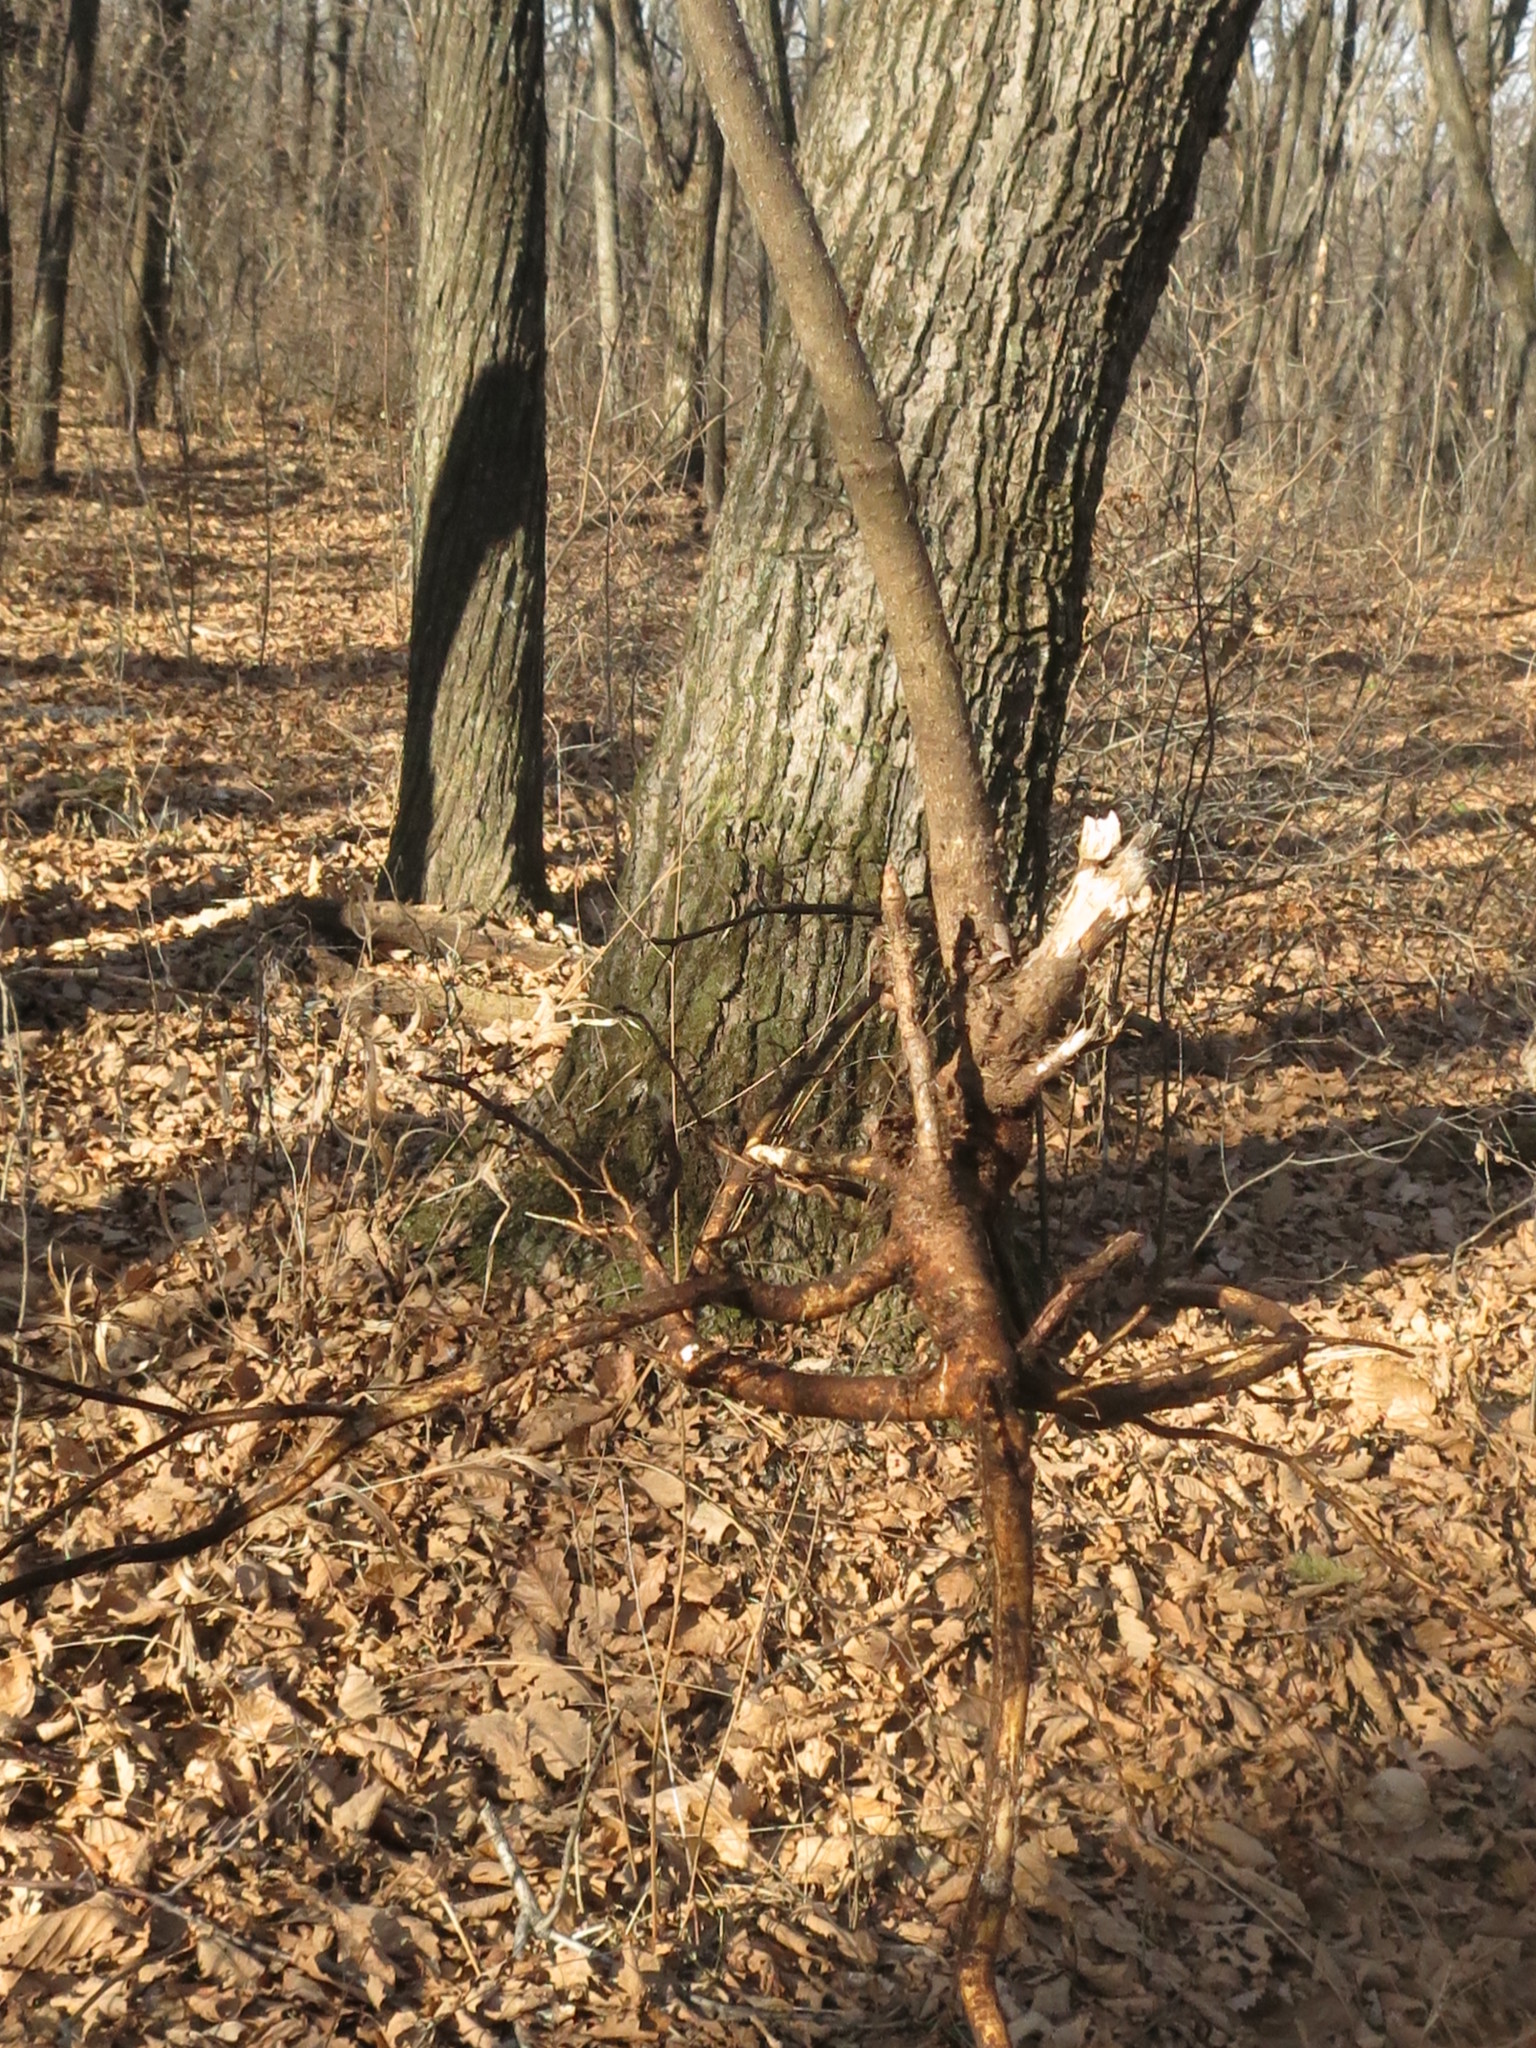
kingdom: Plantae
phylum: Tracheophyta
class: Magnoliopsida
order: Apiales
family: Araliaceae
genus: Eleutherococcus
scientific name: Eleutherococcus senticosus
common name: Siberian-ginseng
